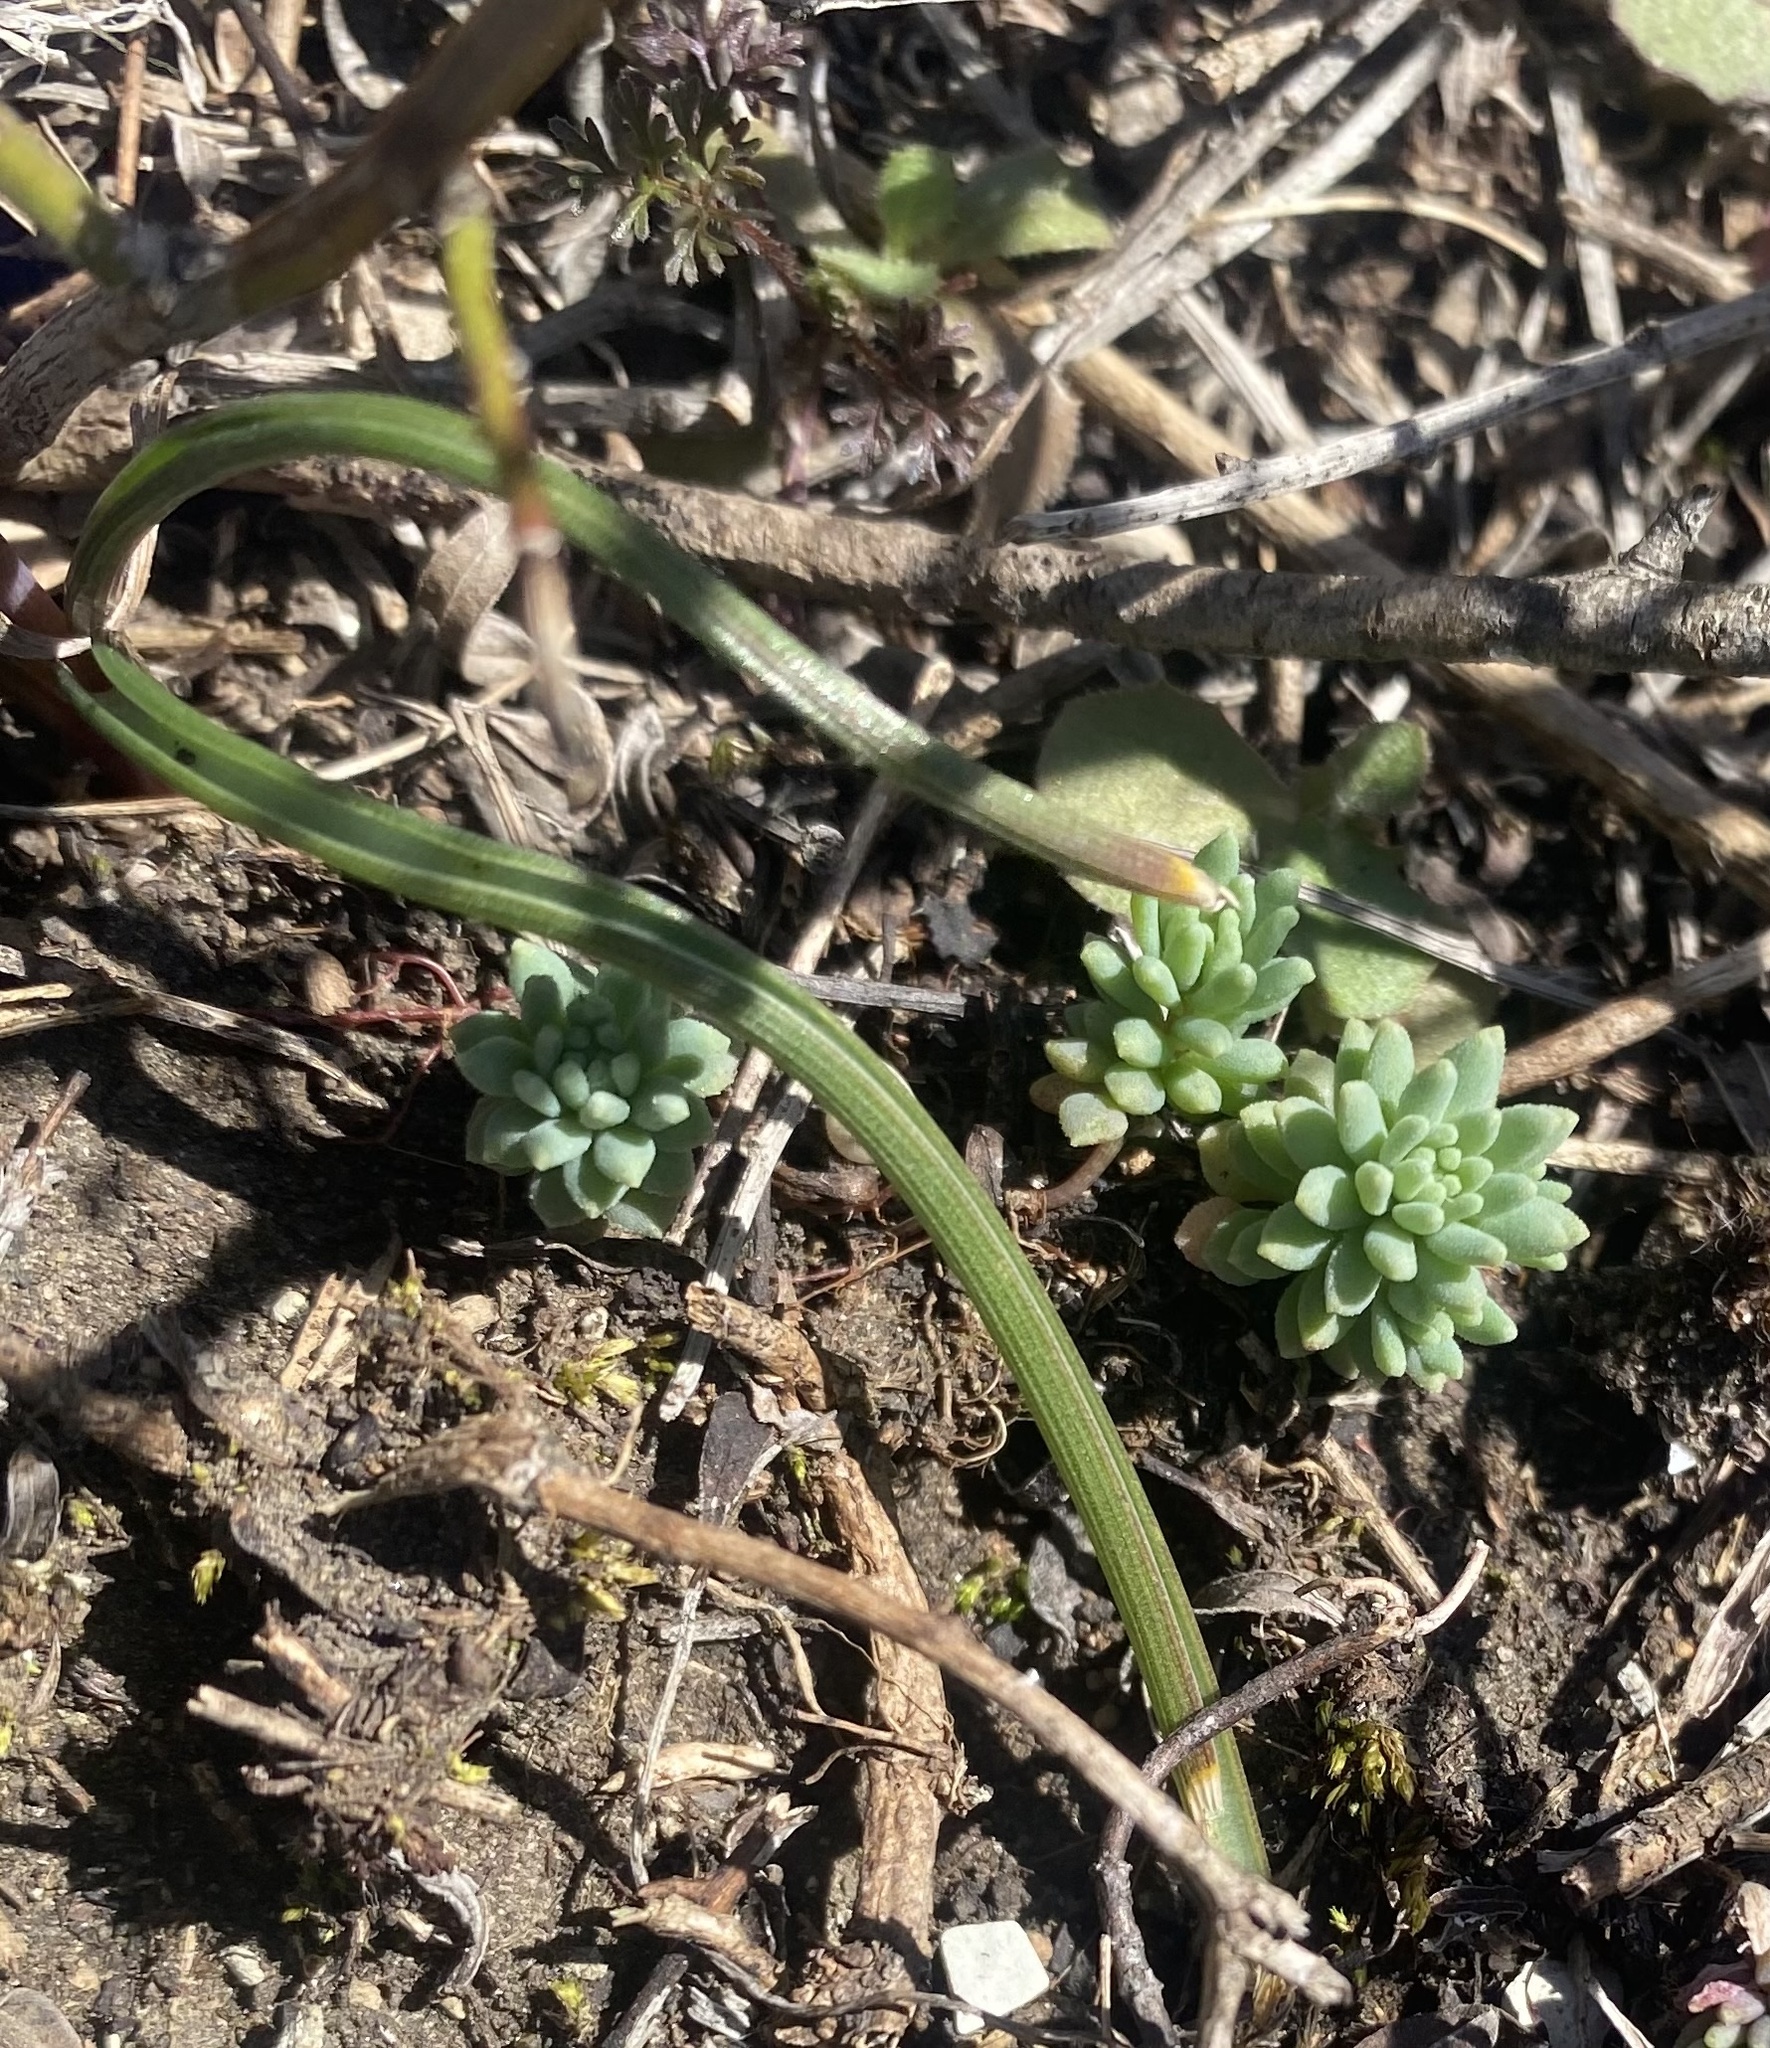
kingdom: Plantae
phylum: Tracheophyta
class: Magnoliopsida
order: Saxifragales
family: Crassulaceae
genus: Sedum
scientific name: Sedum hispanicum
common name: Spanish stonecrop
